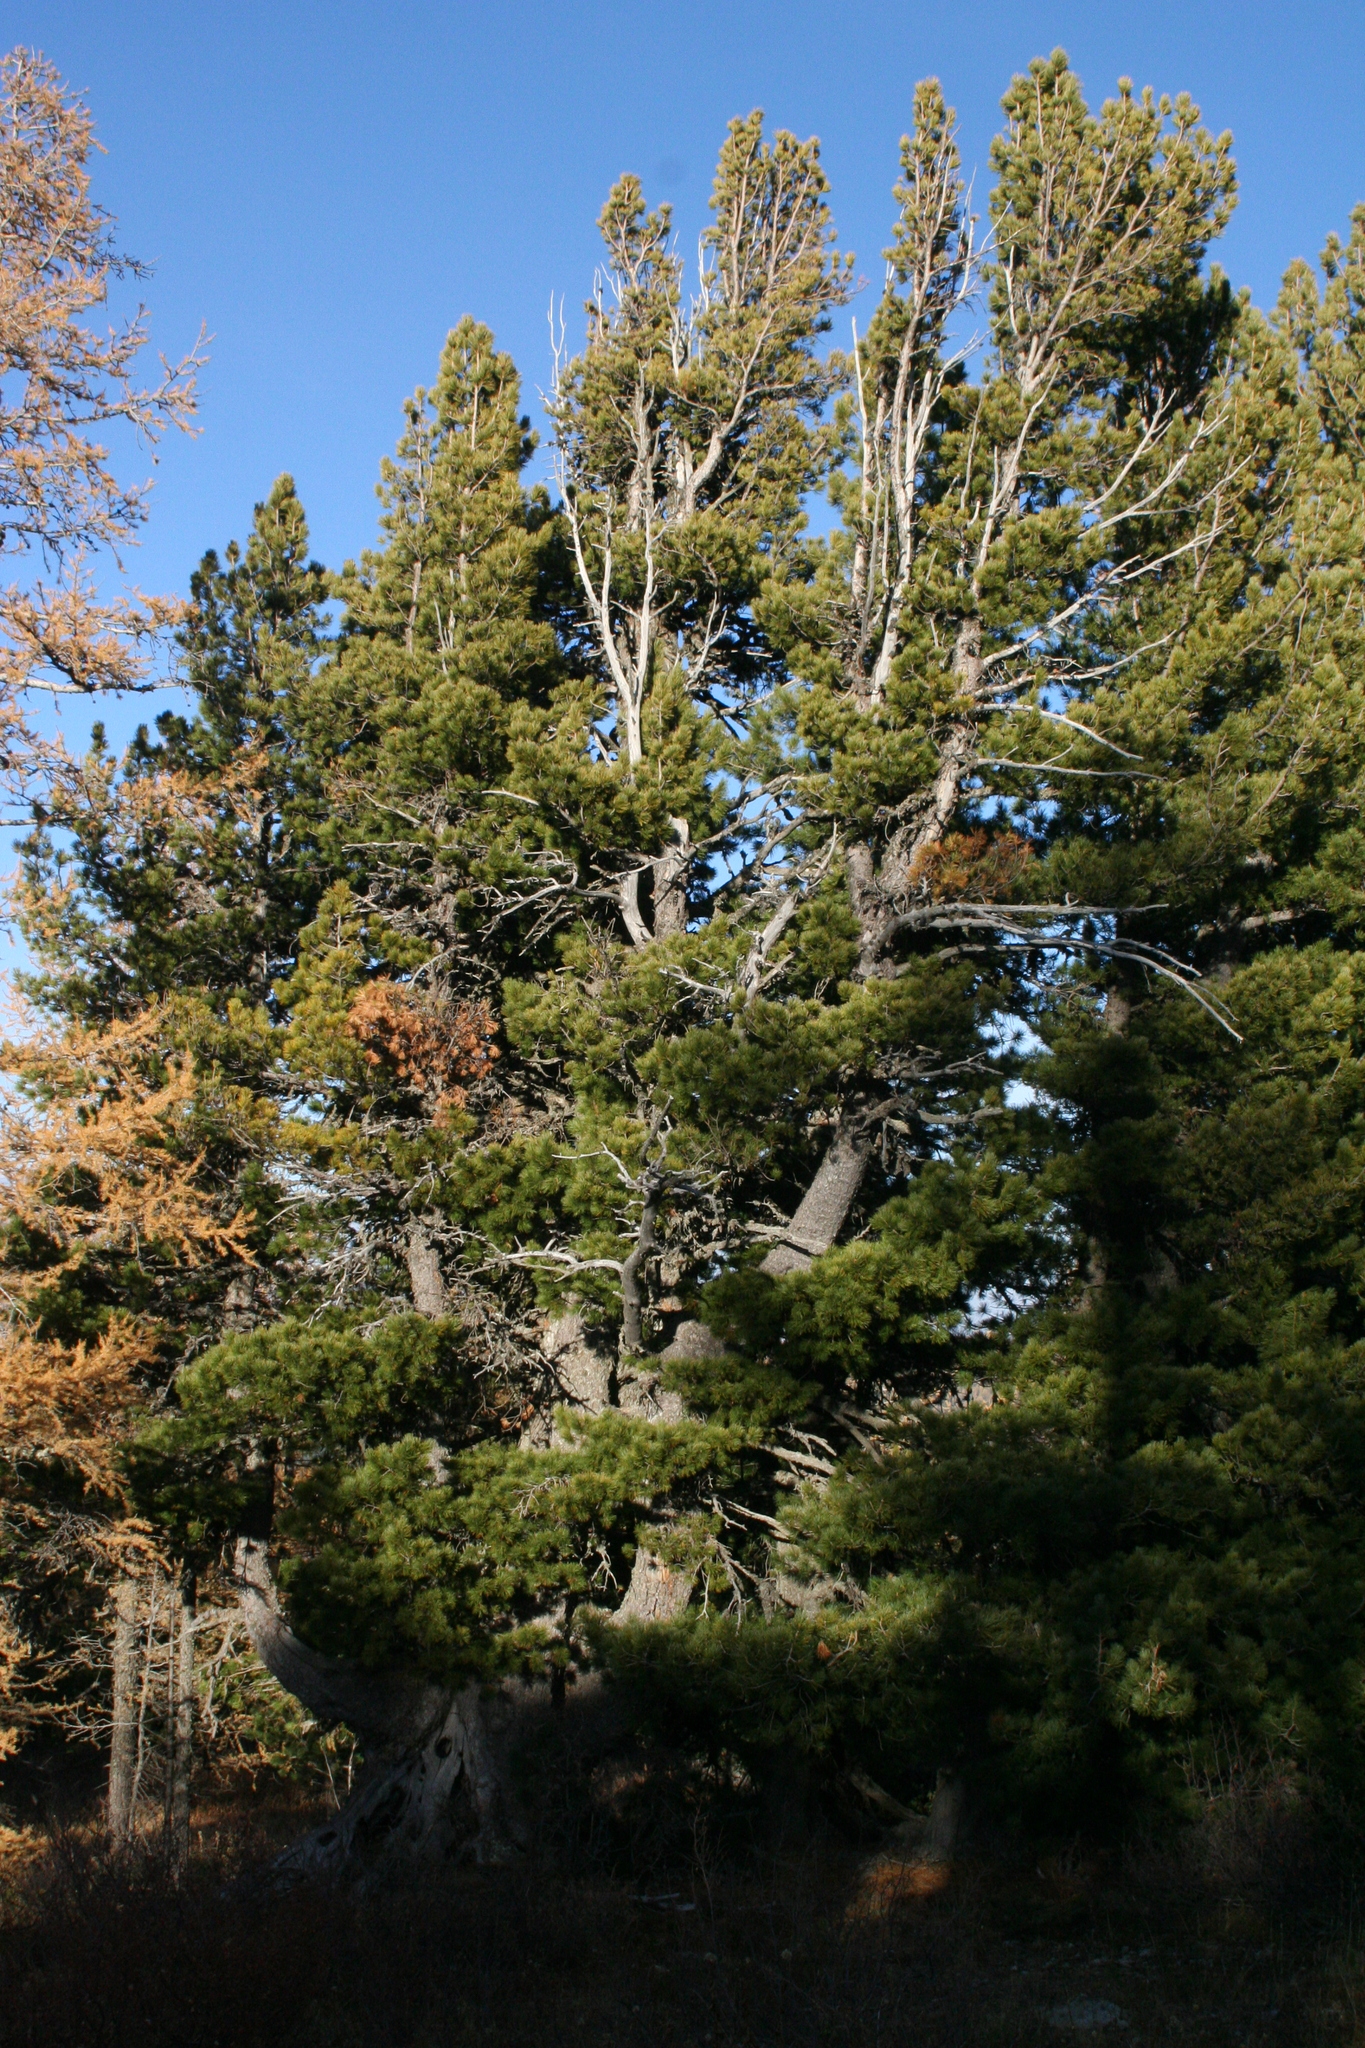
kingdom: Plantae
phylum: Tracheophyta
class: Pinopsida
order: Pinales
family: Pinaceae
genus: Pinus
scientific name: Pinus sibirica
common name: Siberian pine
